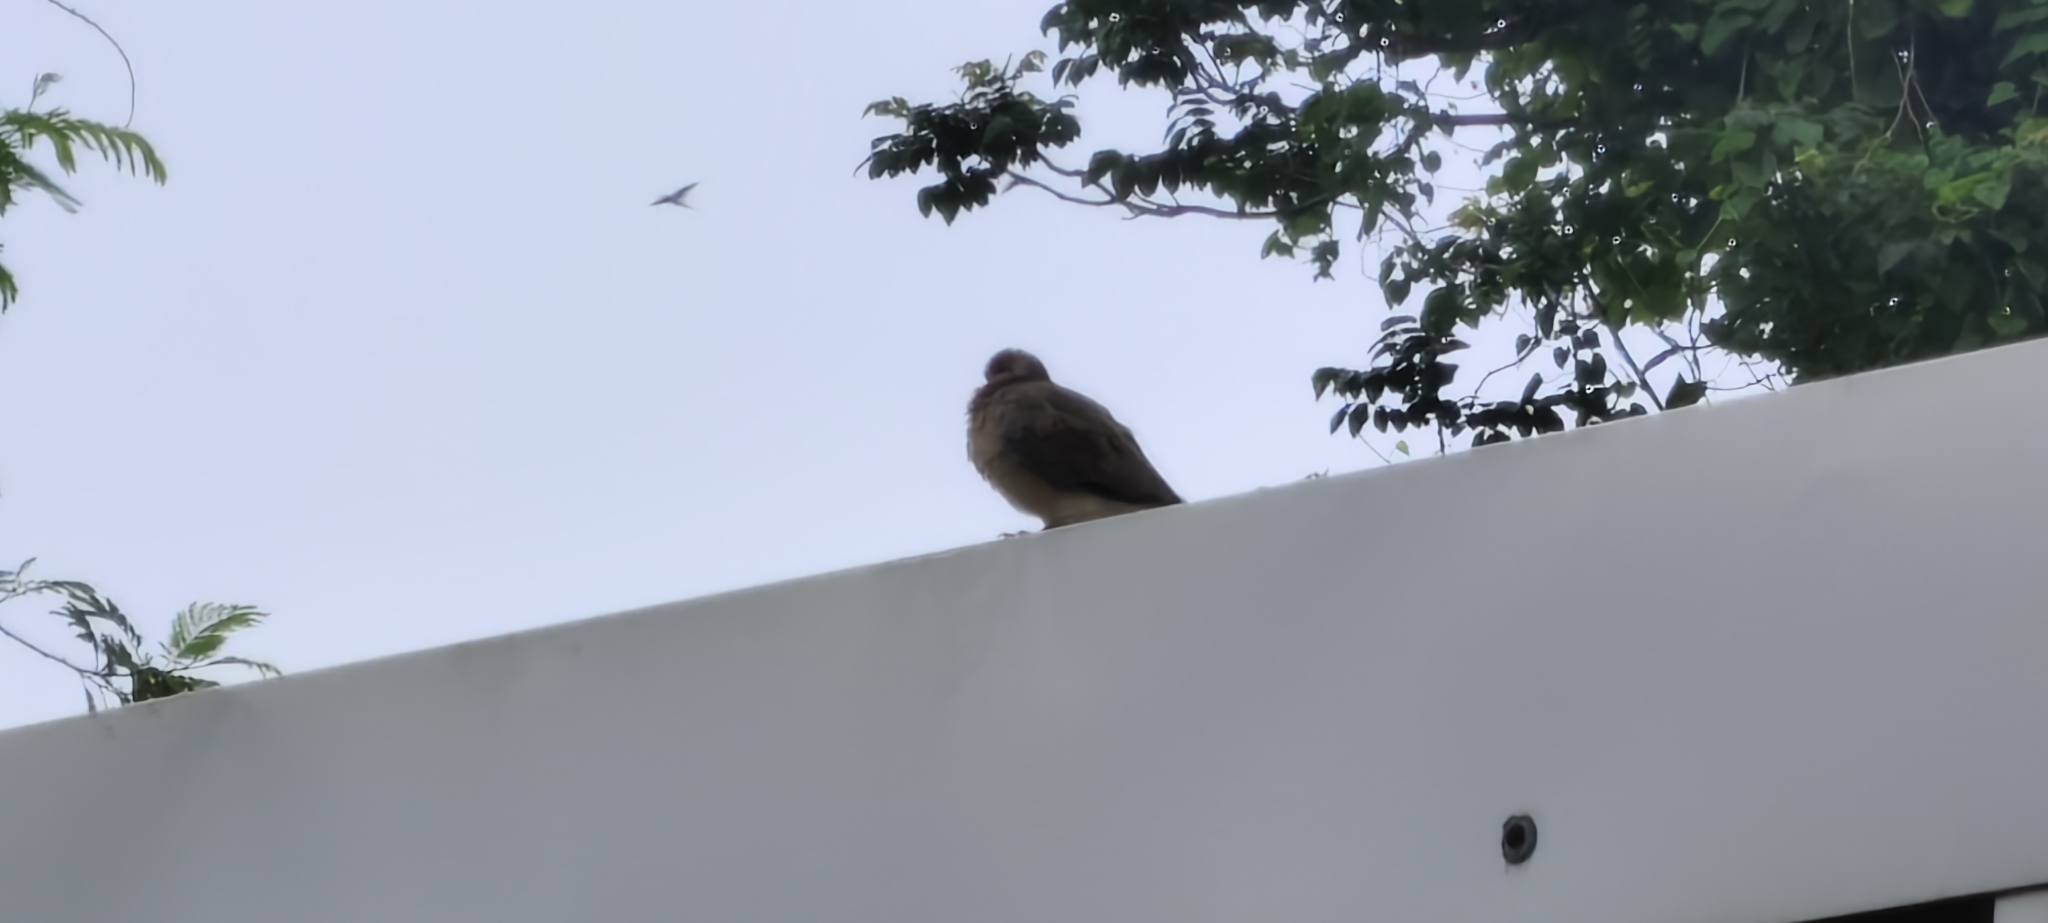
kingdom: Animalia
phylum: Chordata
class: Aves
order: Columbiformes
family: Columbidae
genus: Spilopelia
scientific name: Spilopelia senegalensis
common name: Laughing dove
